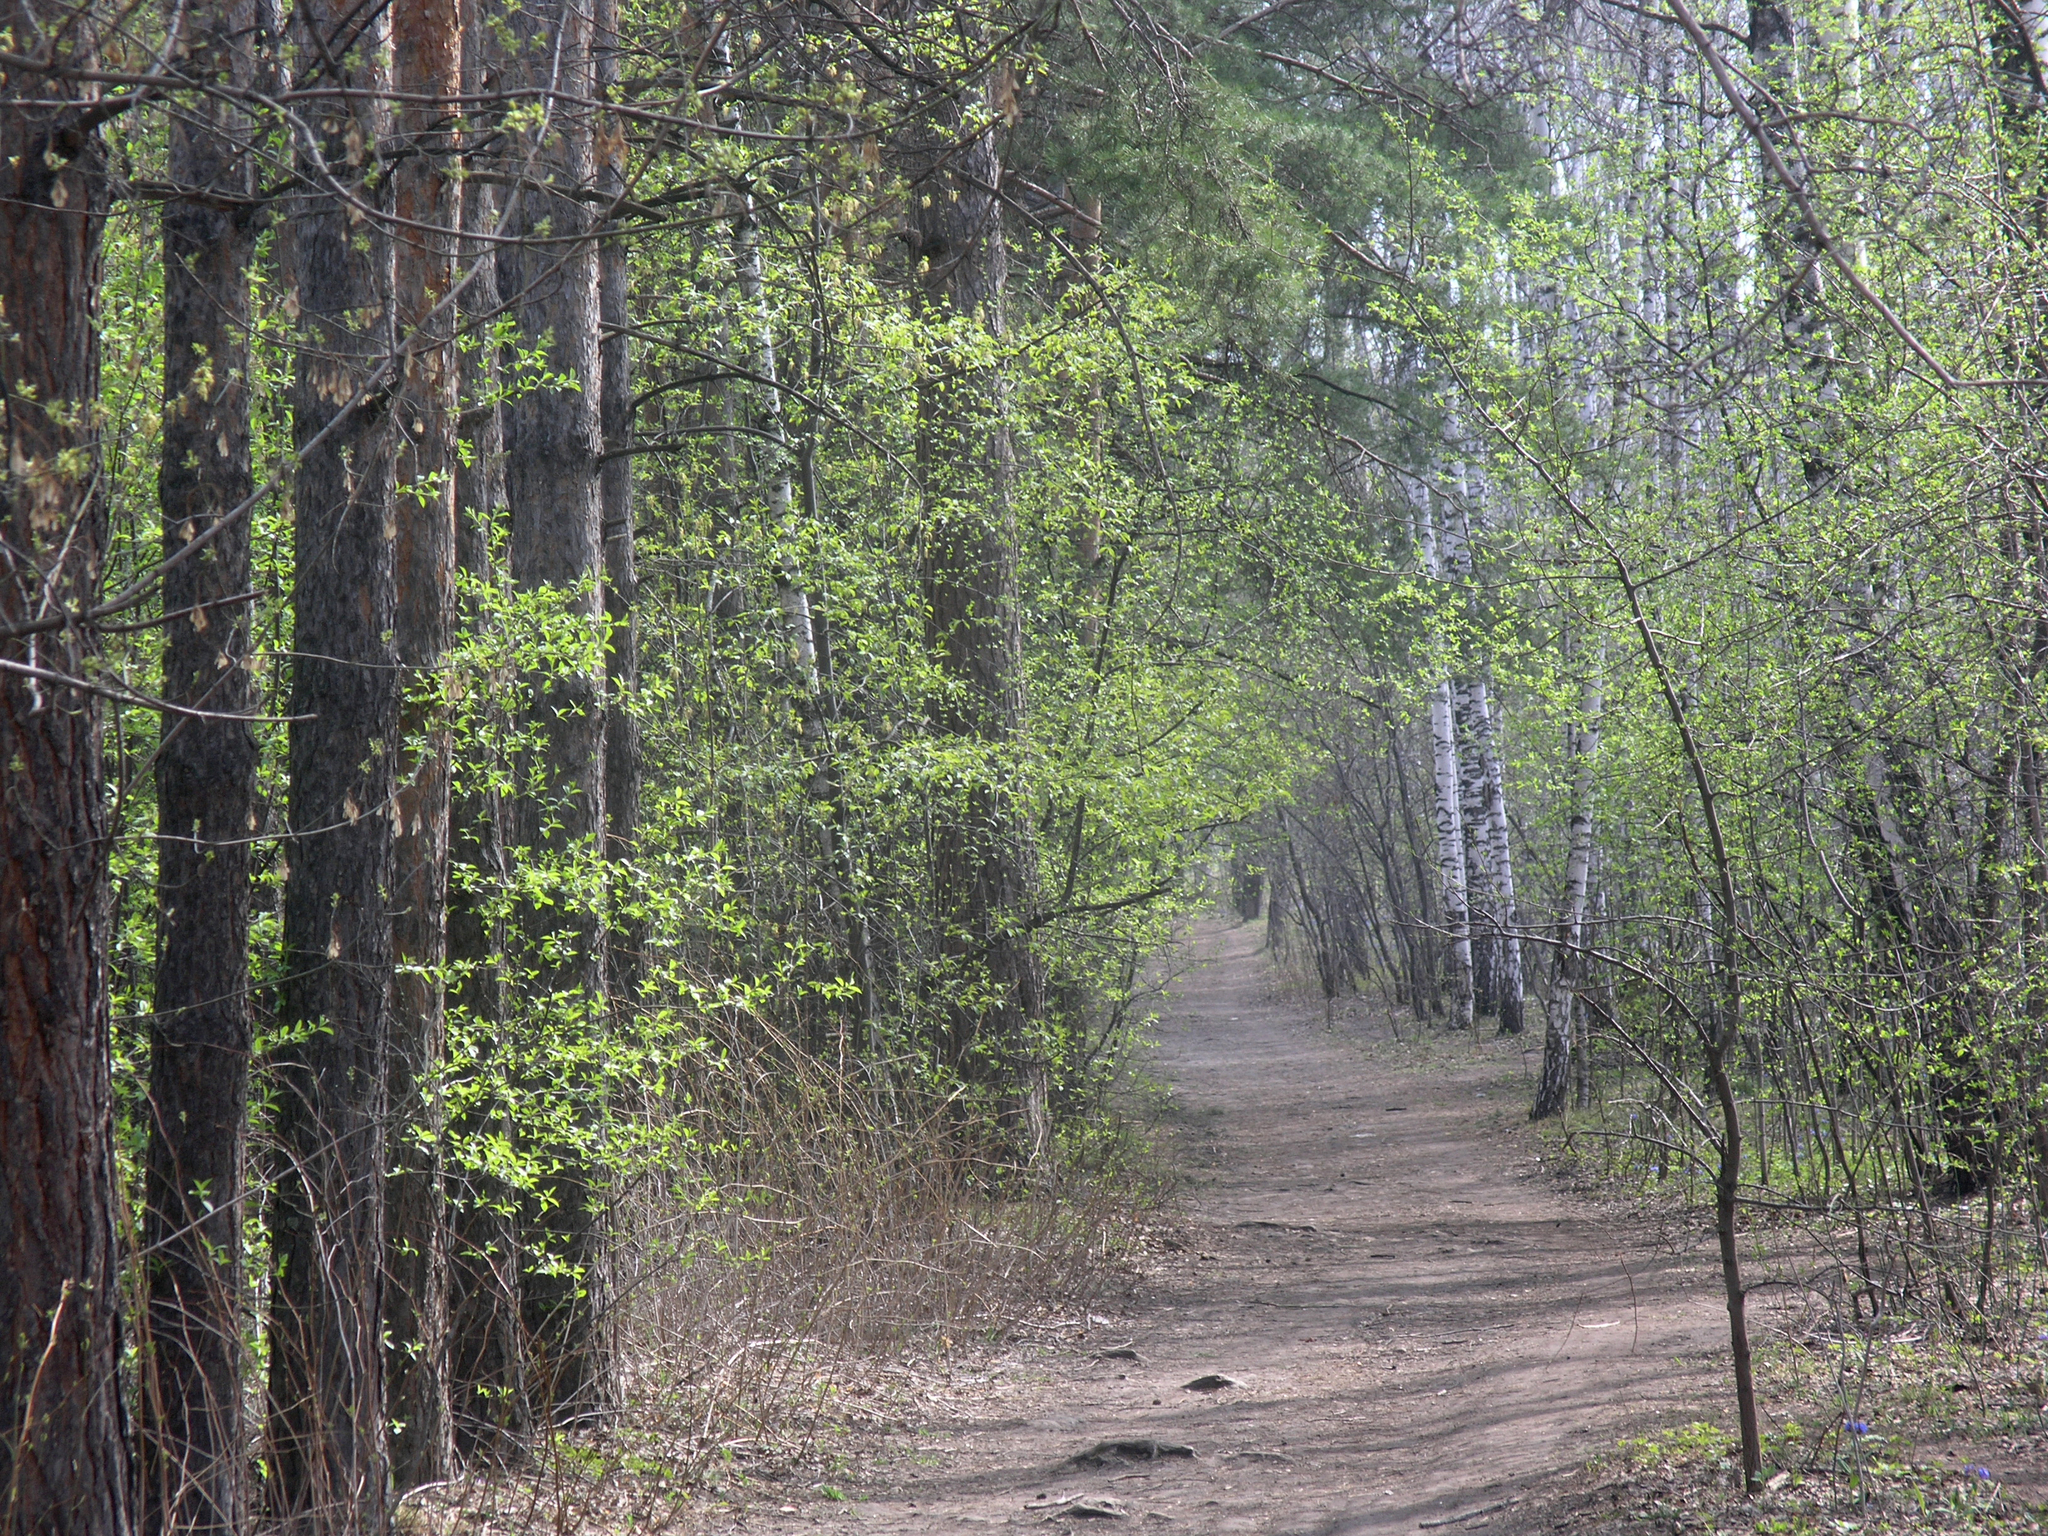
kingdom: Plantae
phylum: Tracheophyta
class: Magnoliopsida
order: Rosales
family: Rosaceae
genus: Prunus
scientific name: Prunus padus
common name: Bird cherry
